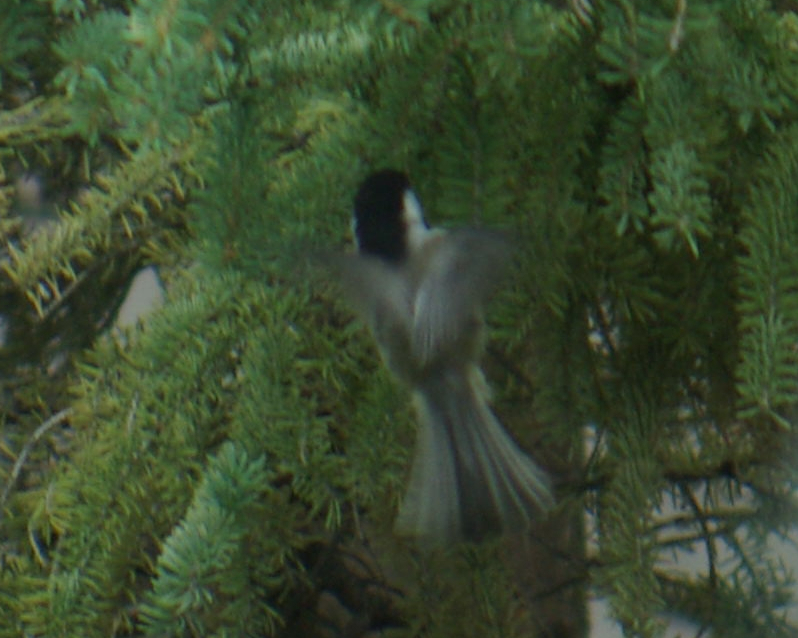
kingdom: Animalia
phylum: Chordata
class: Aves
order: Passeriformes
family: Paridae
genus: Poecile
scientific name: Poecile atricapillus
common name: Black-capped chickadee
